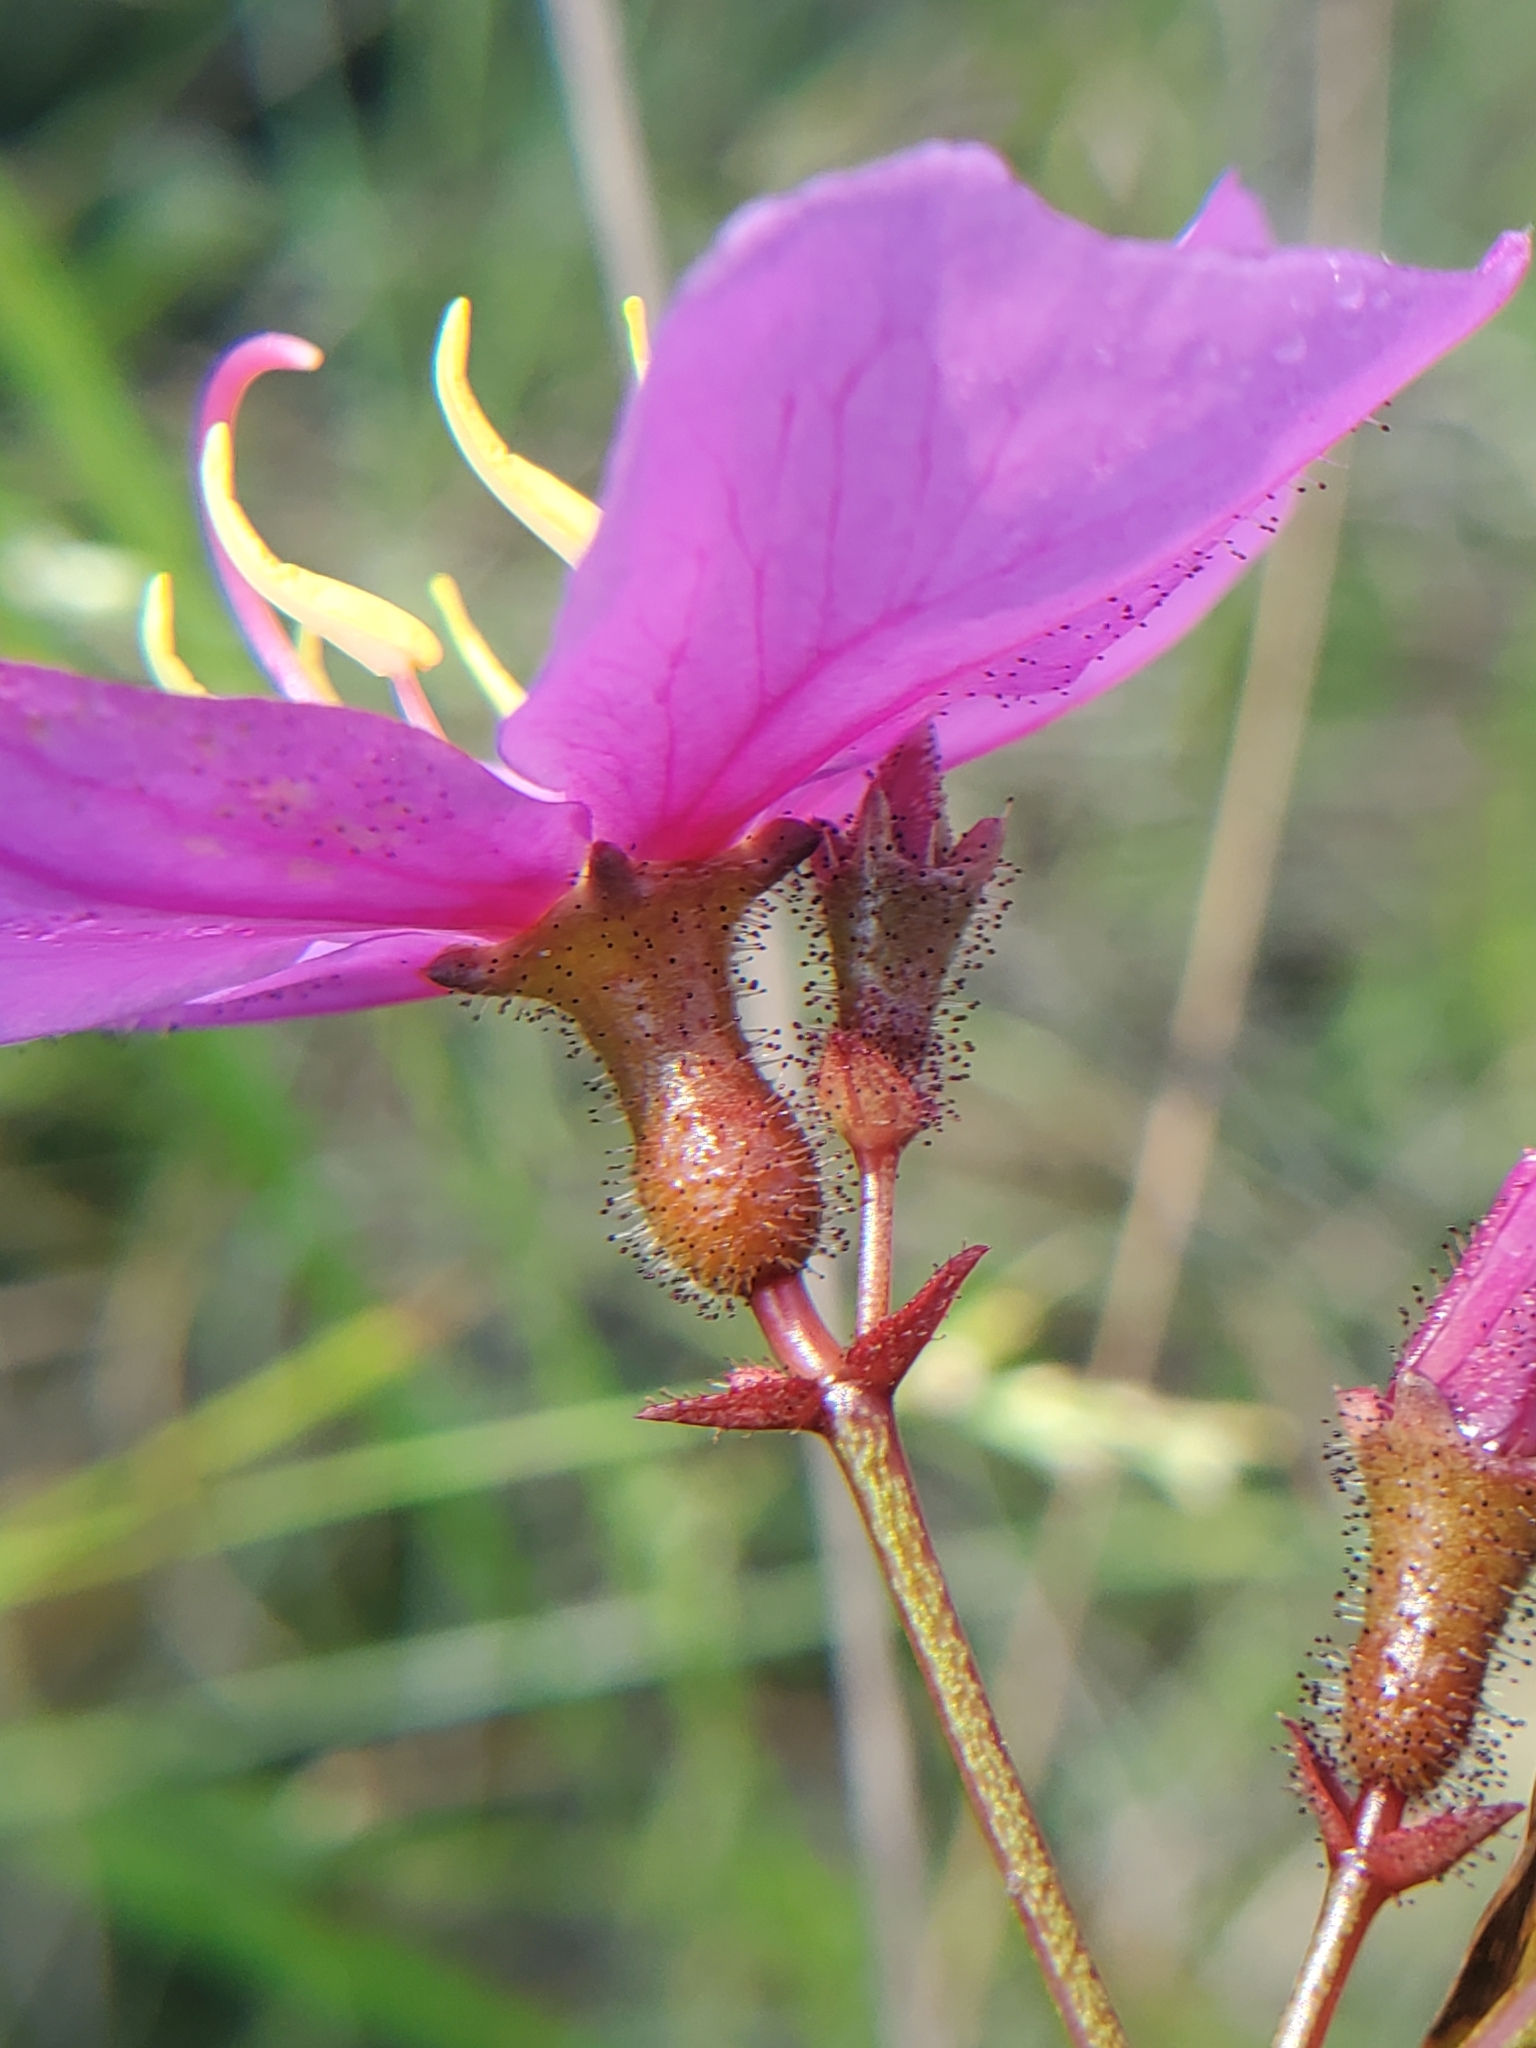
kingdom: Plantae
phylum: Tracheophyta
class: Magnoliopsida
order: Myrtales
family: Melastomataceae
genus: Rhexia
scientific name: Rhexia alifanus
